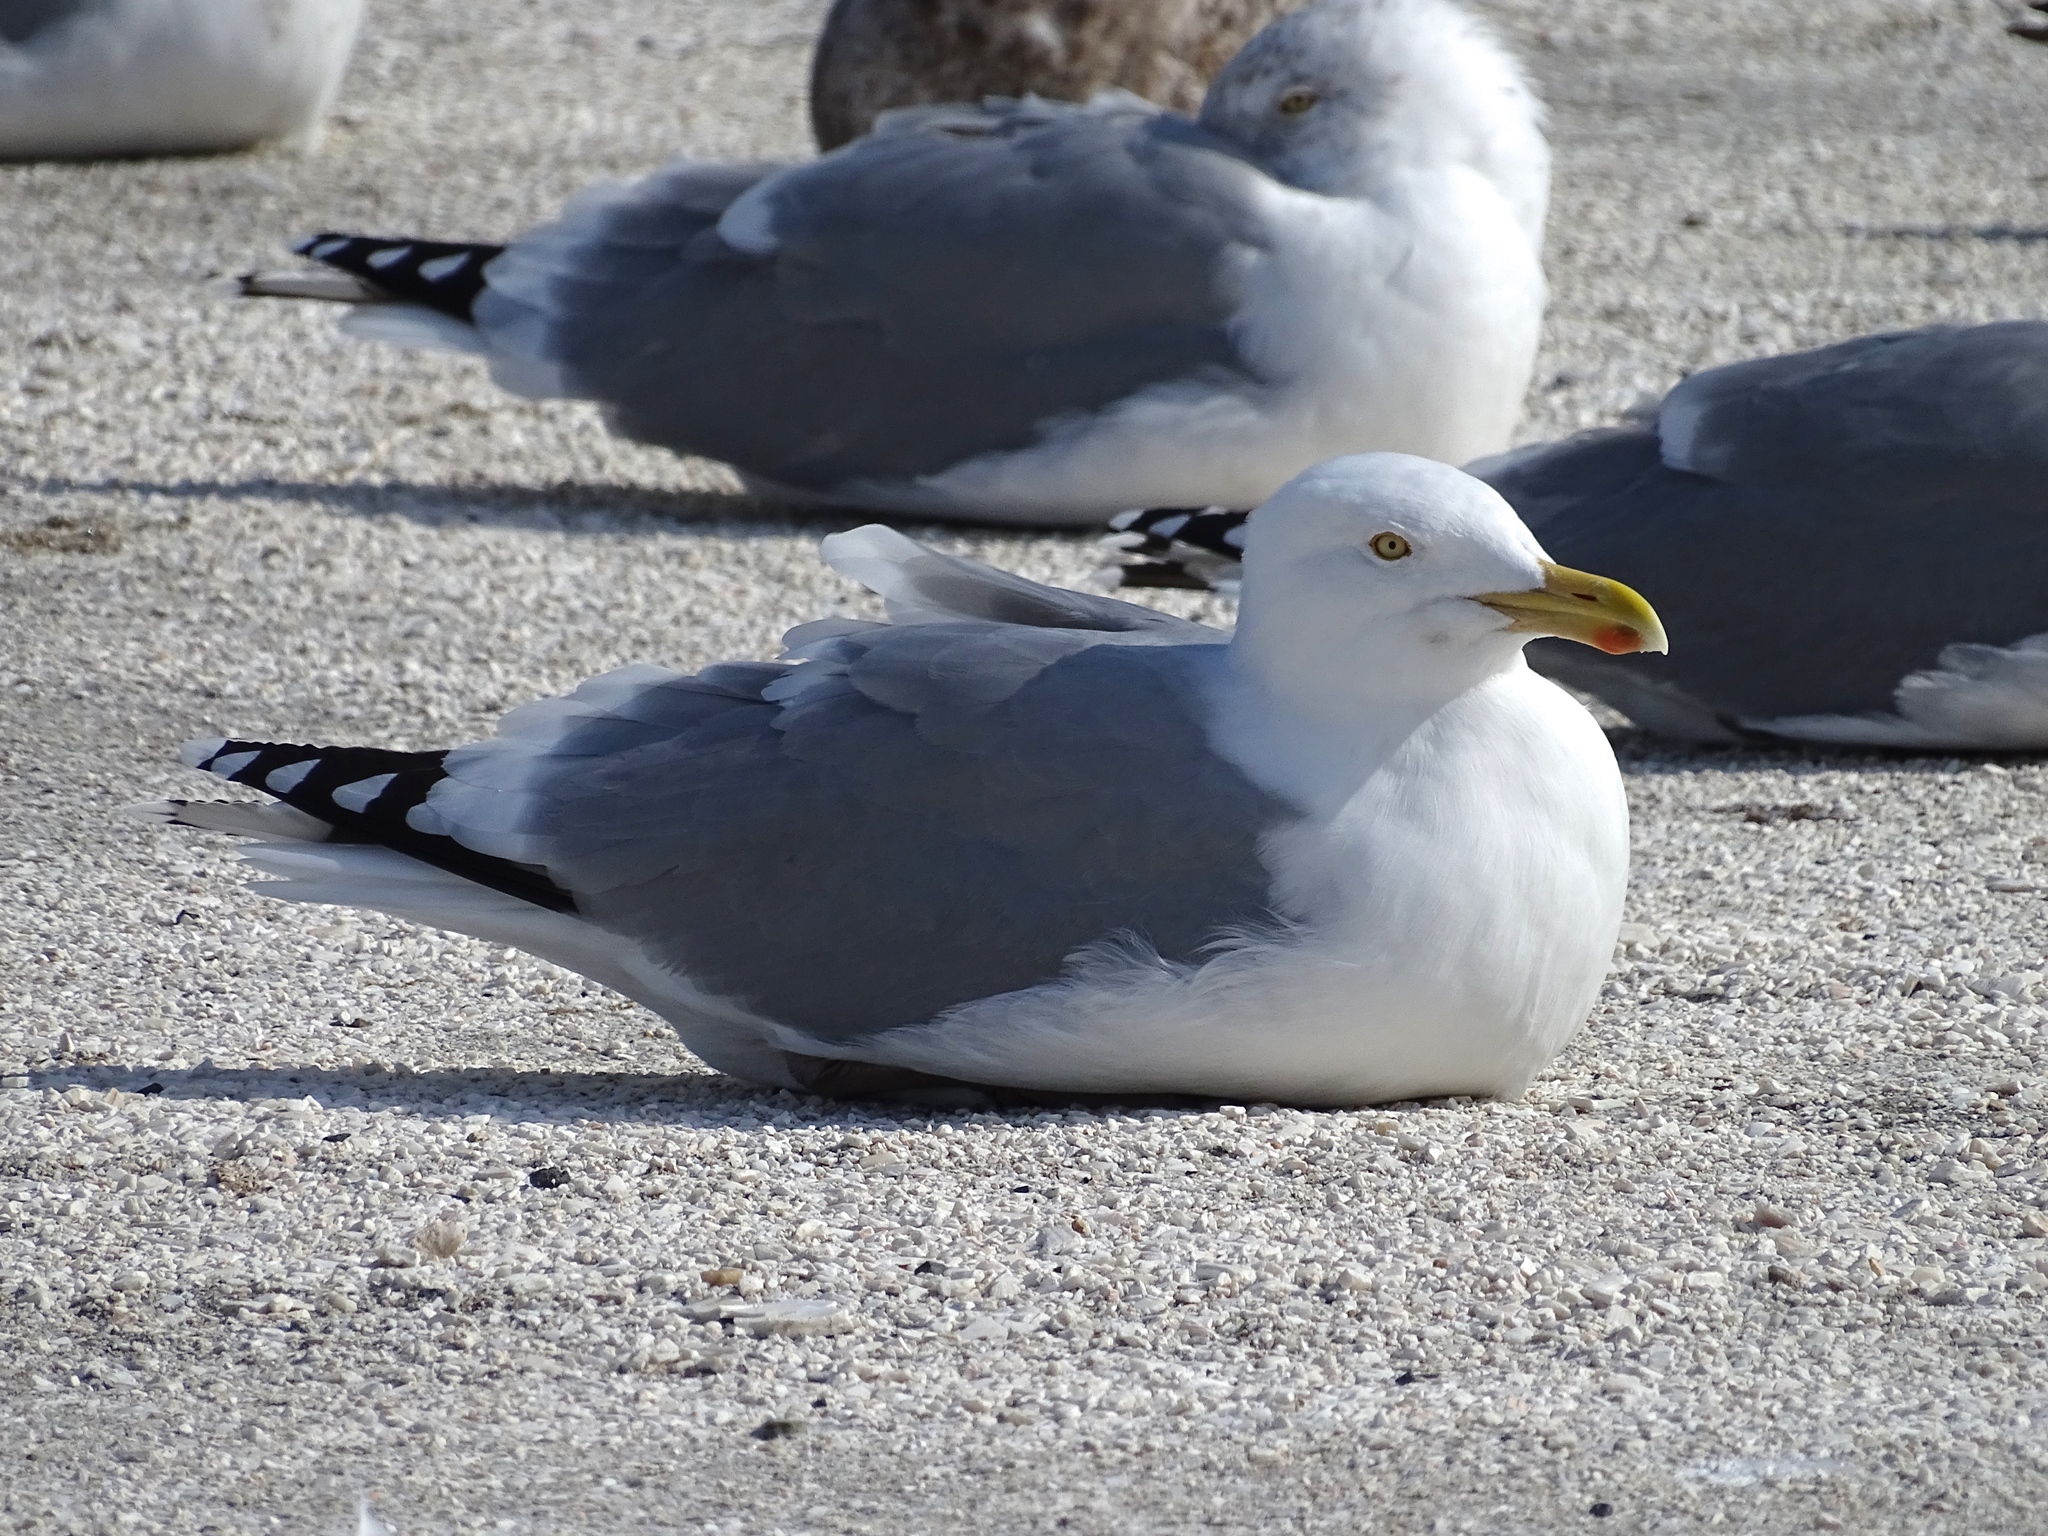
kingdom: Animalia
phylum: Chordata
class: Aves
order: Charadriiformes
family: Laridae
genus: Larus
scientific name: Larus argentatus
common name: Herring gull
